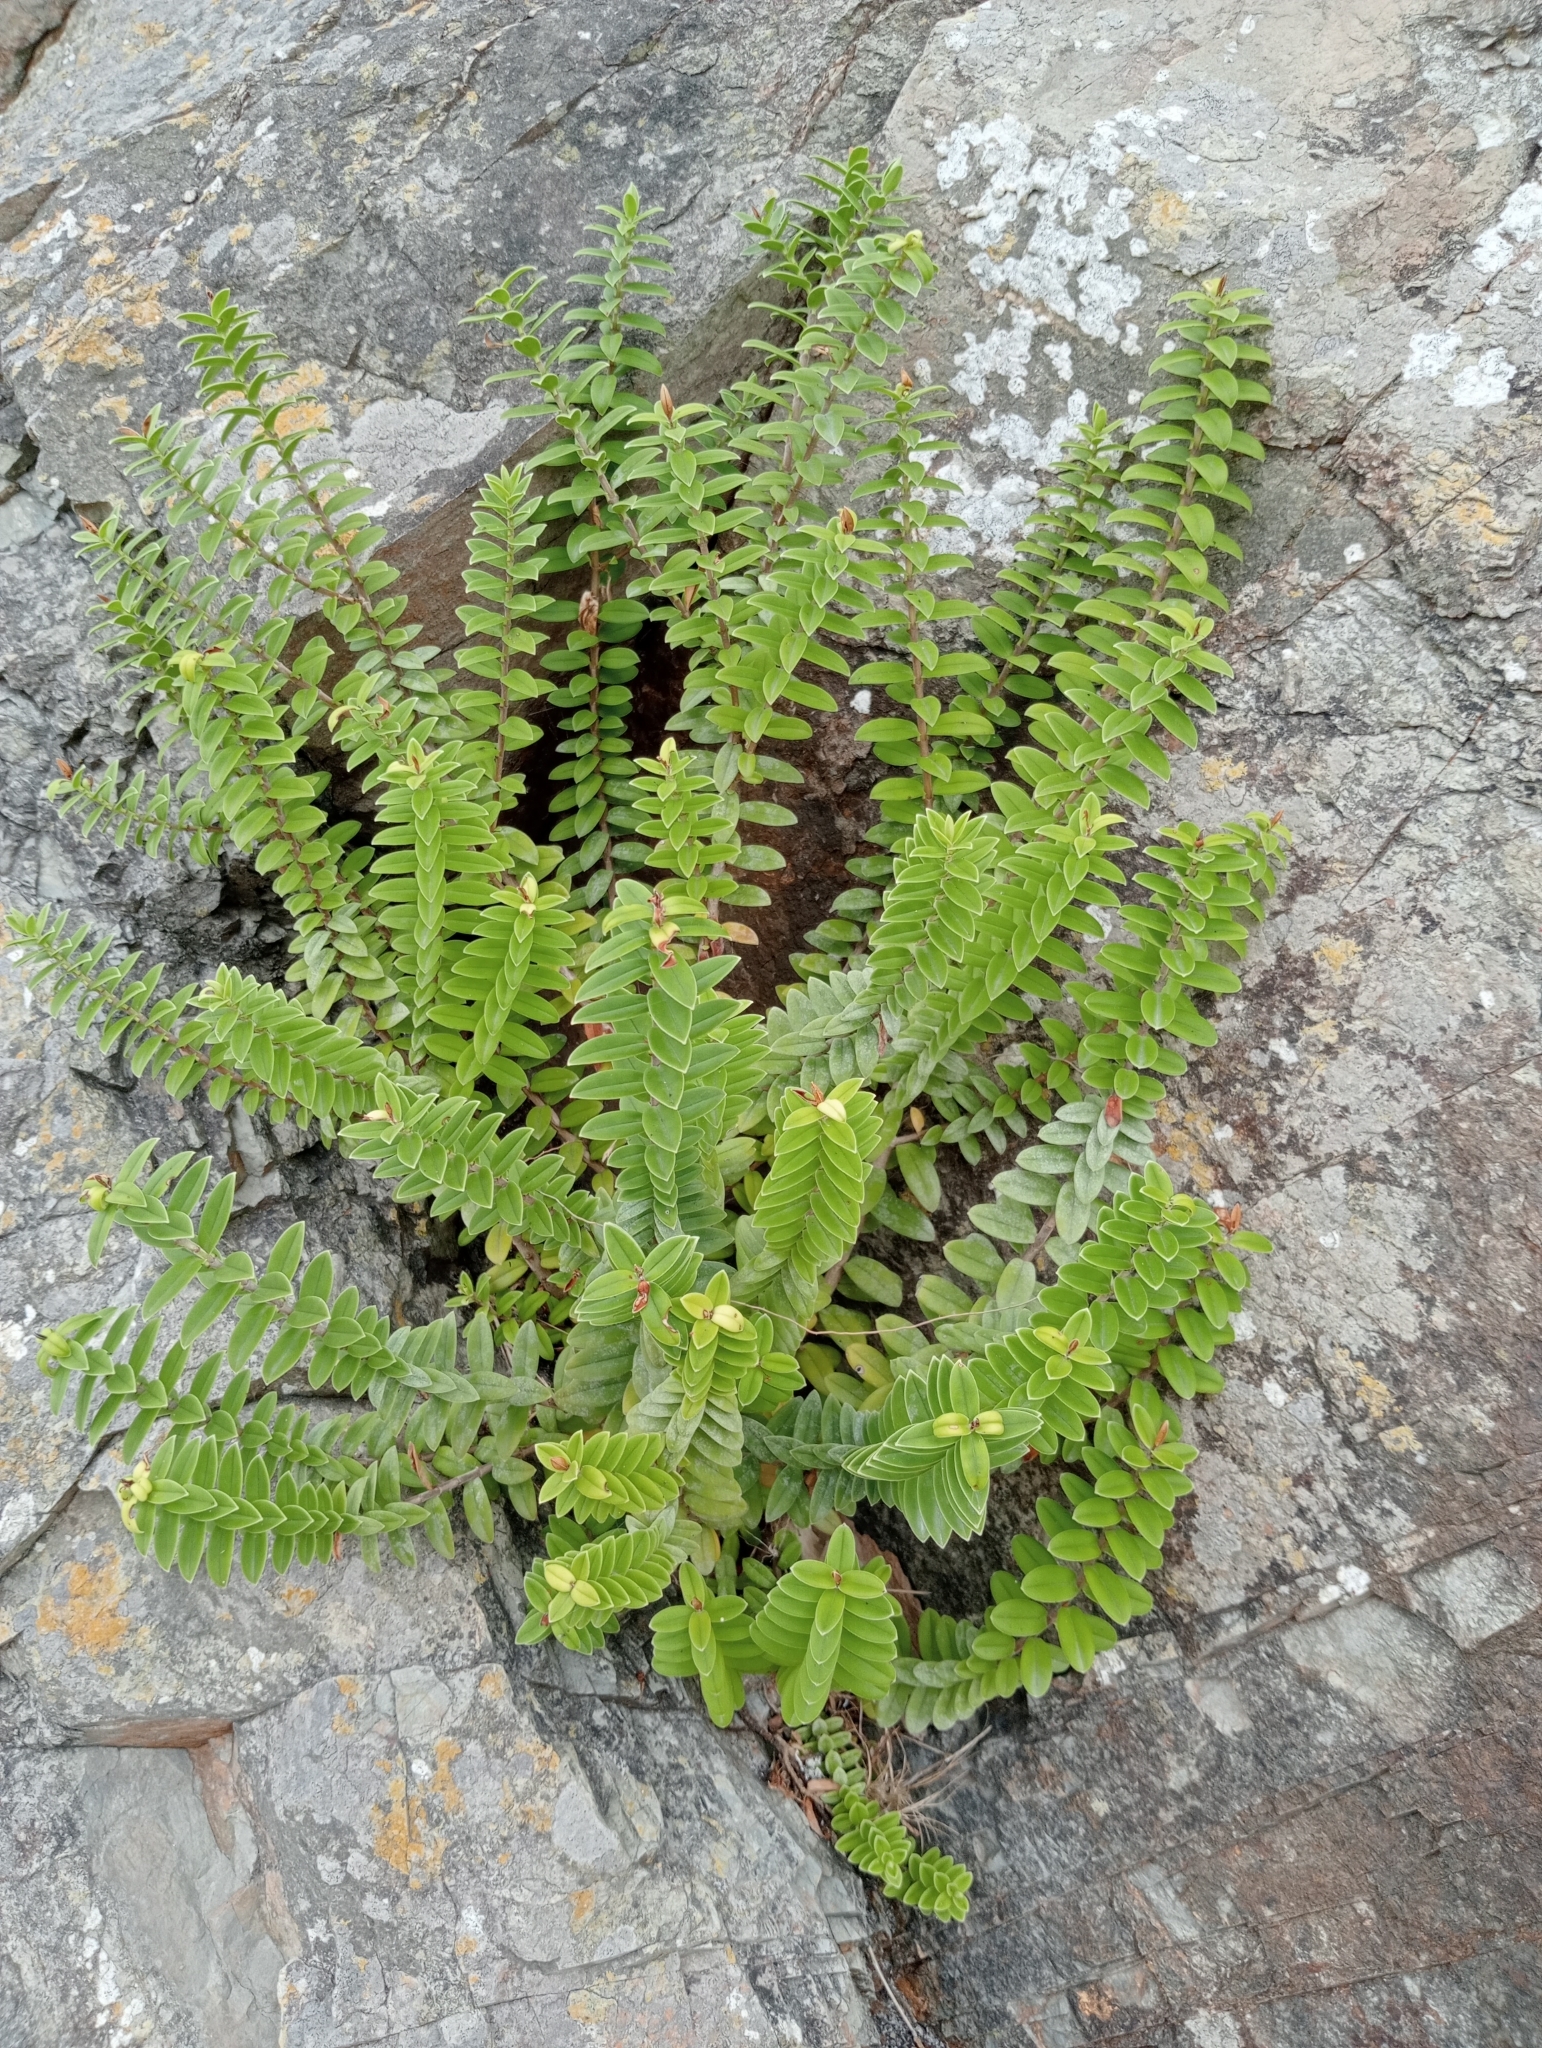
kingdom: Plantae
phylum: Tracheophyta
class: Magnoliopsida
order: Lamiales
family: Plantaginaceae
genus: Veronica
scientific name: Veronica elliptica
